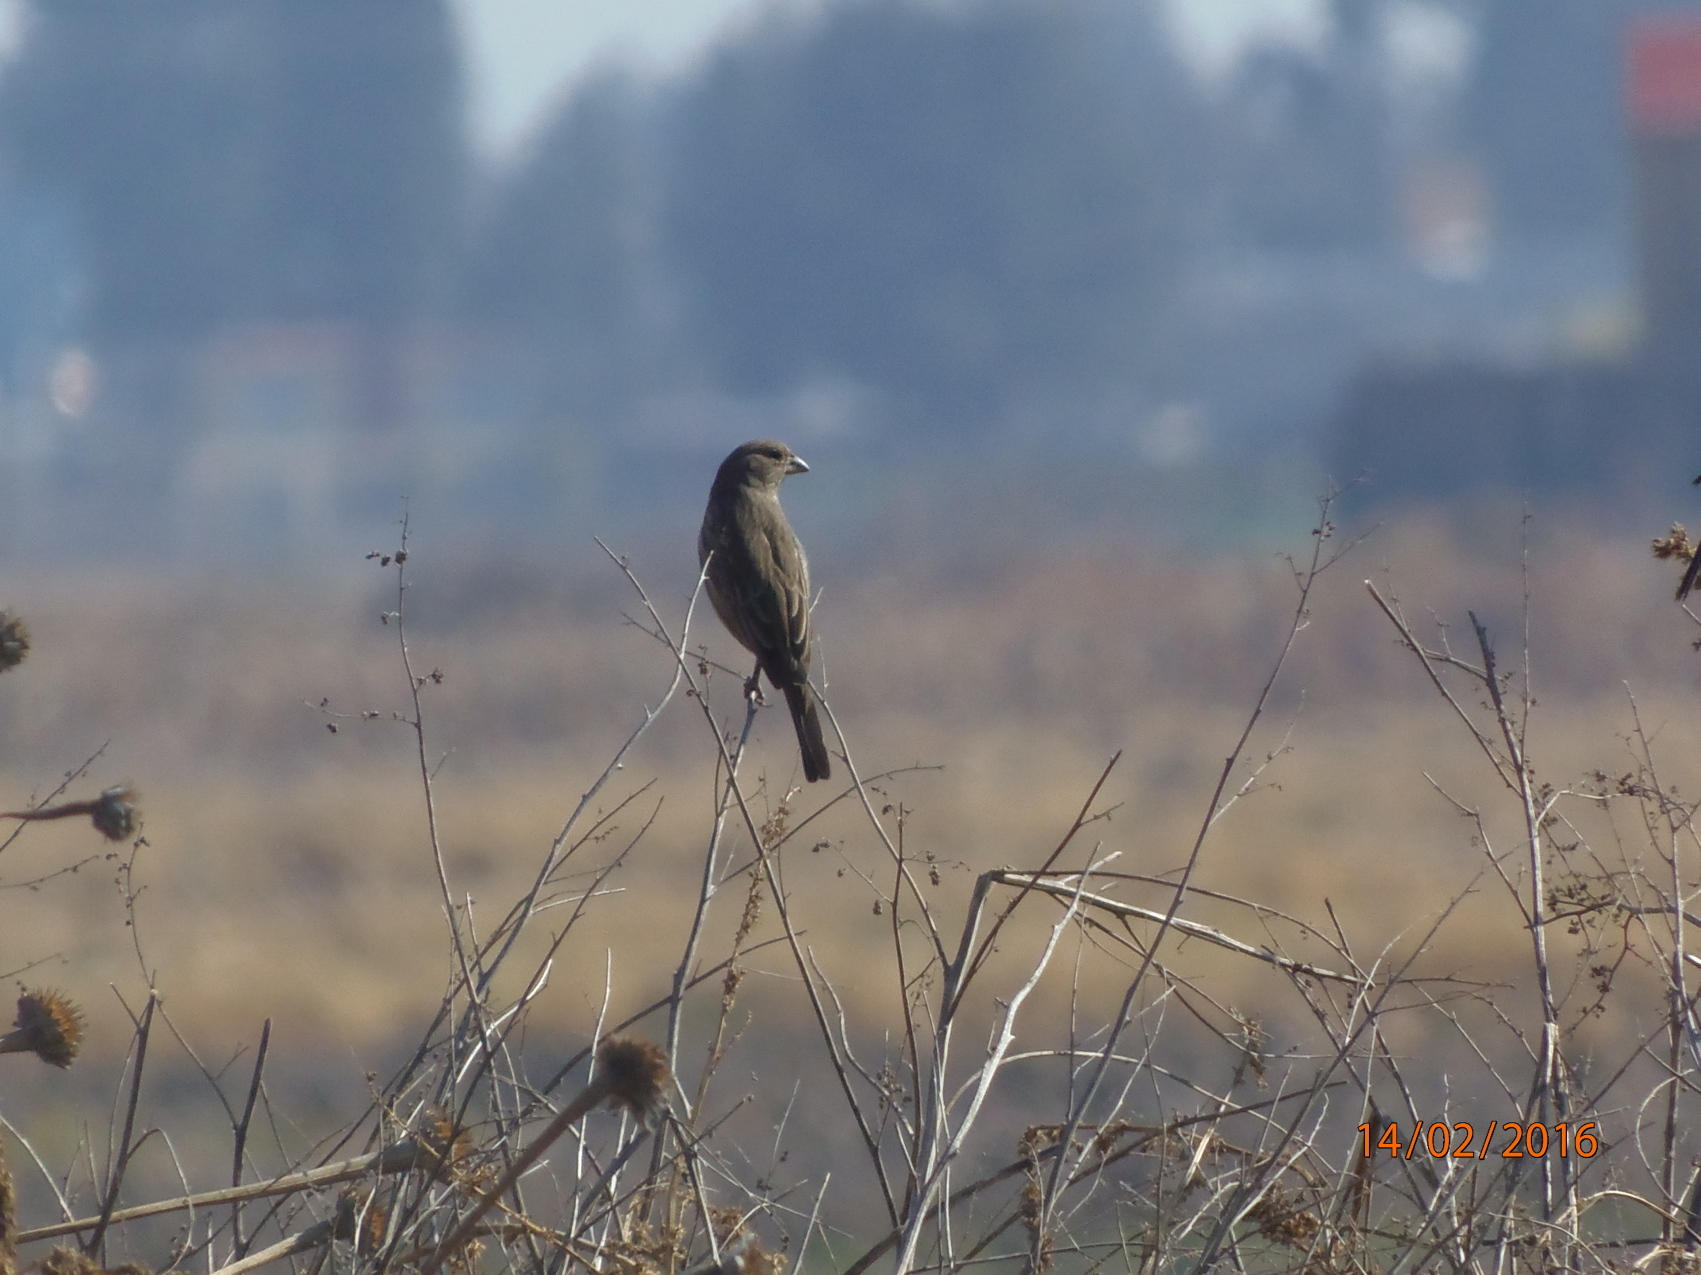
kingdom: Animalia
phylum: Chordata
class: Aves
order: Passeriformes
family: Fringillidae
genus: Haemorhous
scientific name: Haemorhous mexicanus
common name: House finch
